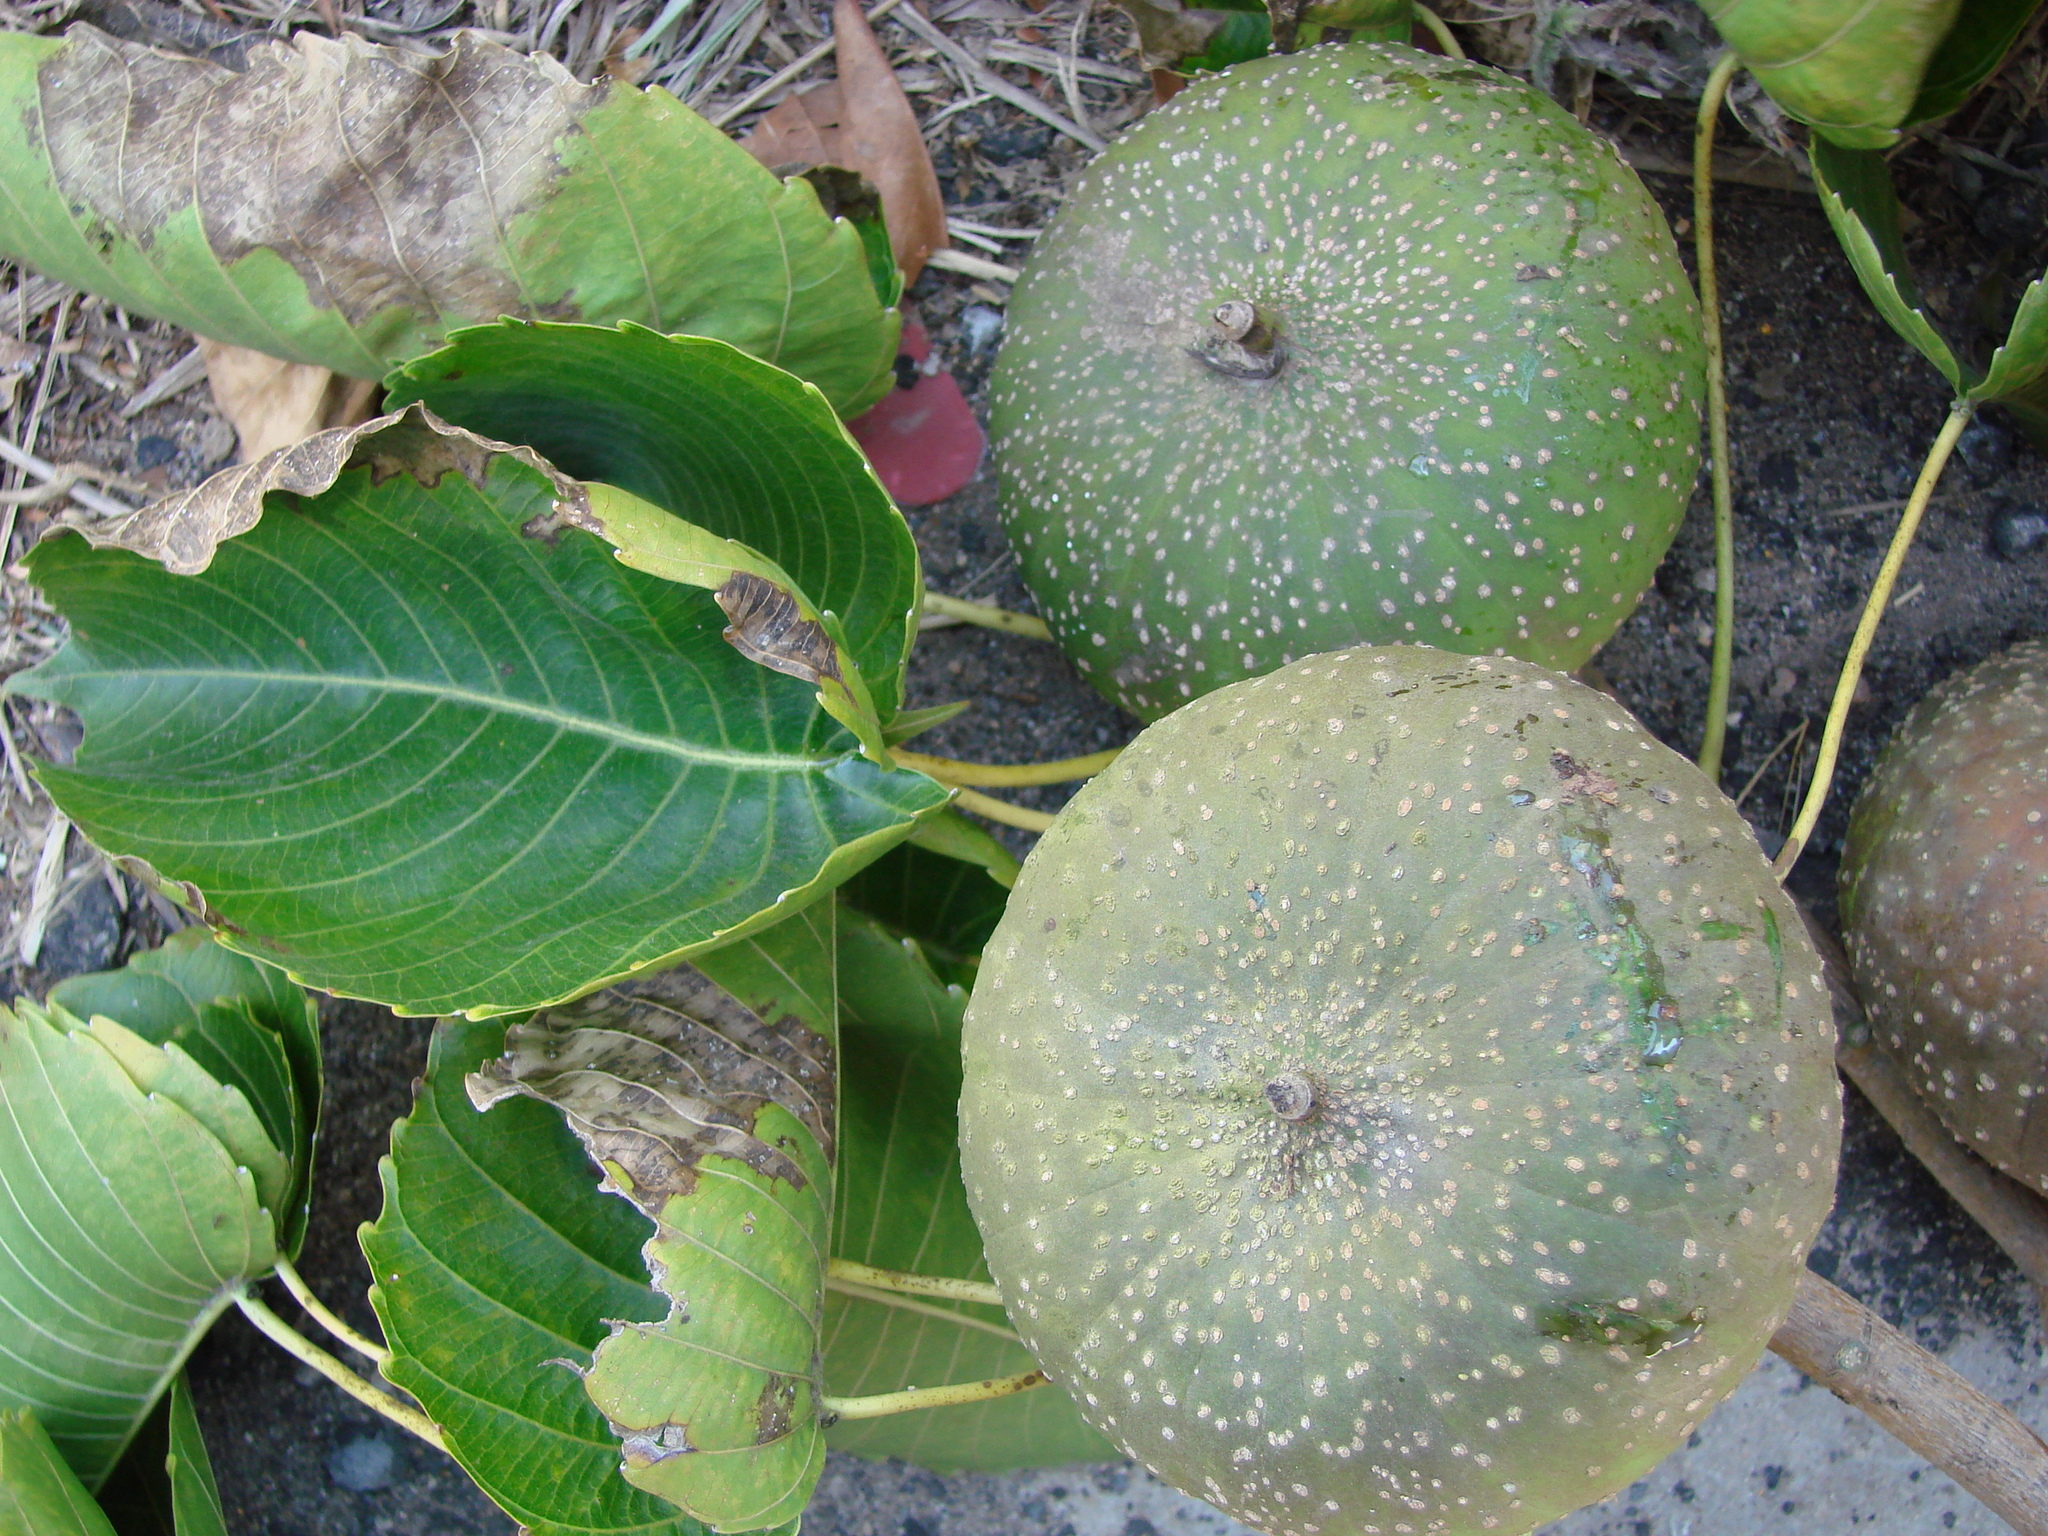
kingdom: Plantae
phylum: Tracheophyta
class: Magnoliopsida
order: Malpighiales
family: Euphorbiaceae
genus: Hura
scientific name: Hura polyandra
